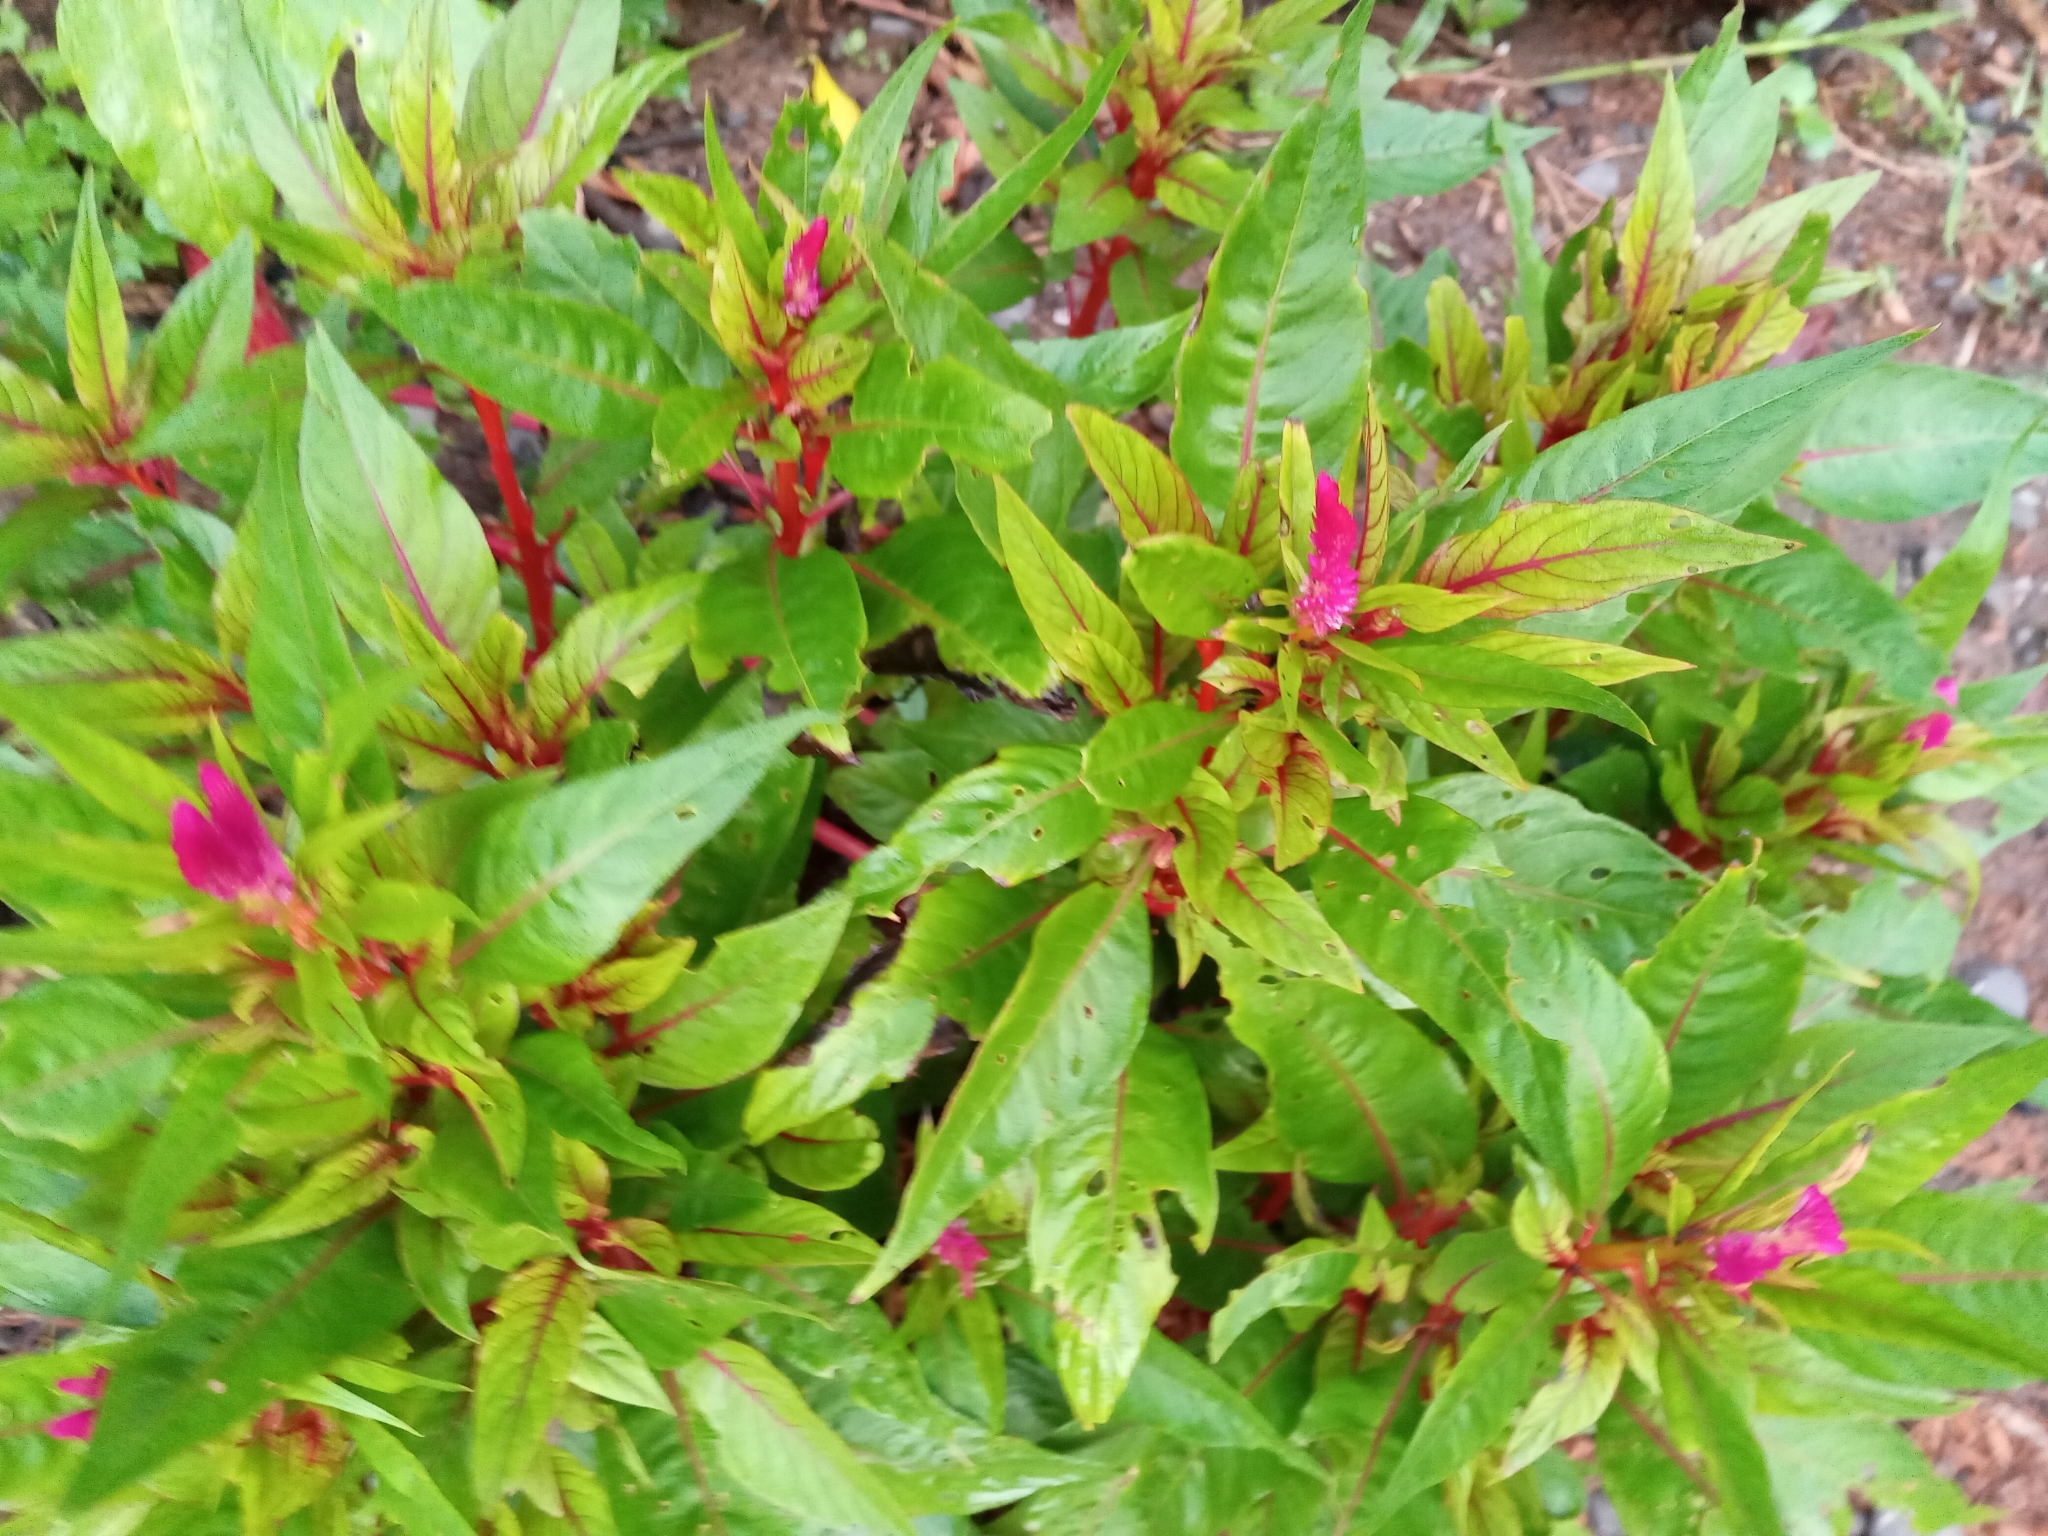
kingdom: Plantae
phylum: Tracheophyta
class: Magnoliopsida
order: Caryophyllales
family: Amaranthaceae
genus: Celosia
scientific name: Celosia argentea
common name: Feather cockscomb
